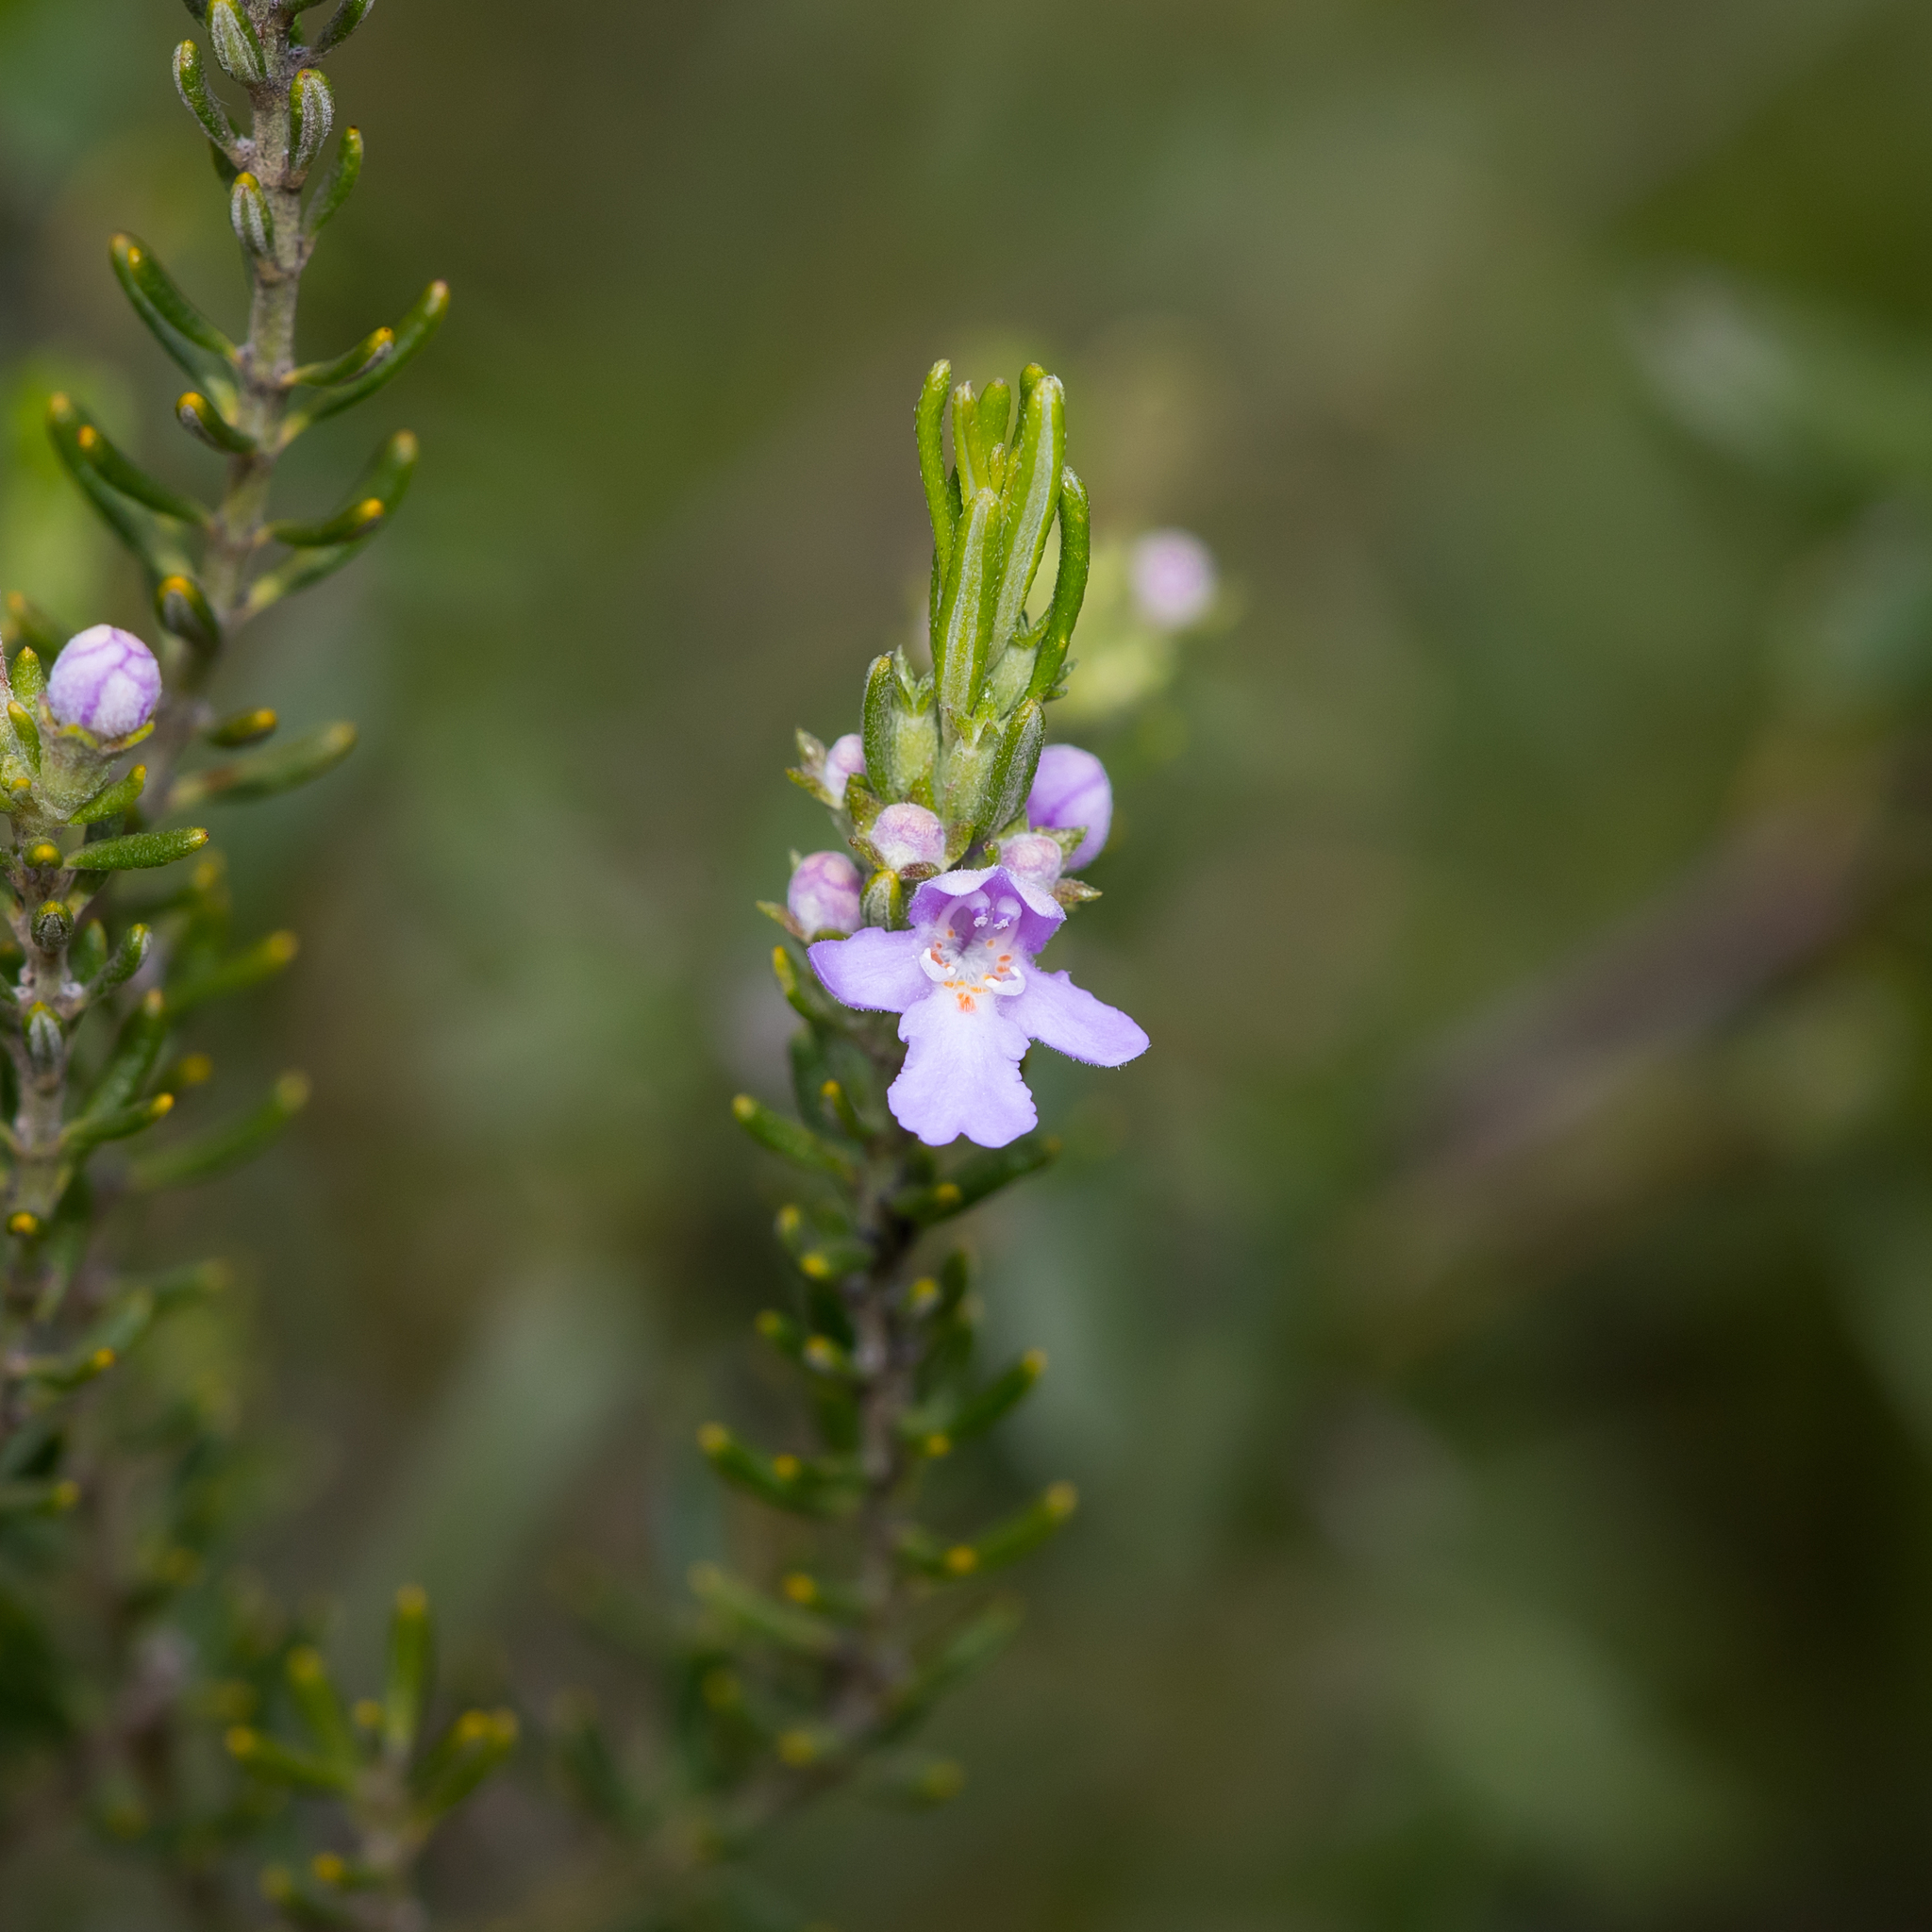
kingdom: Plantae
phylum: Tracheophyta
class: Magnoliopsida
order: Lamiales
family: Lamiaceae
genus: Westringia
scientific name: Westringia eremicola
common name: Slender western-rosemary
